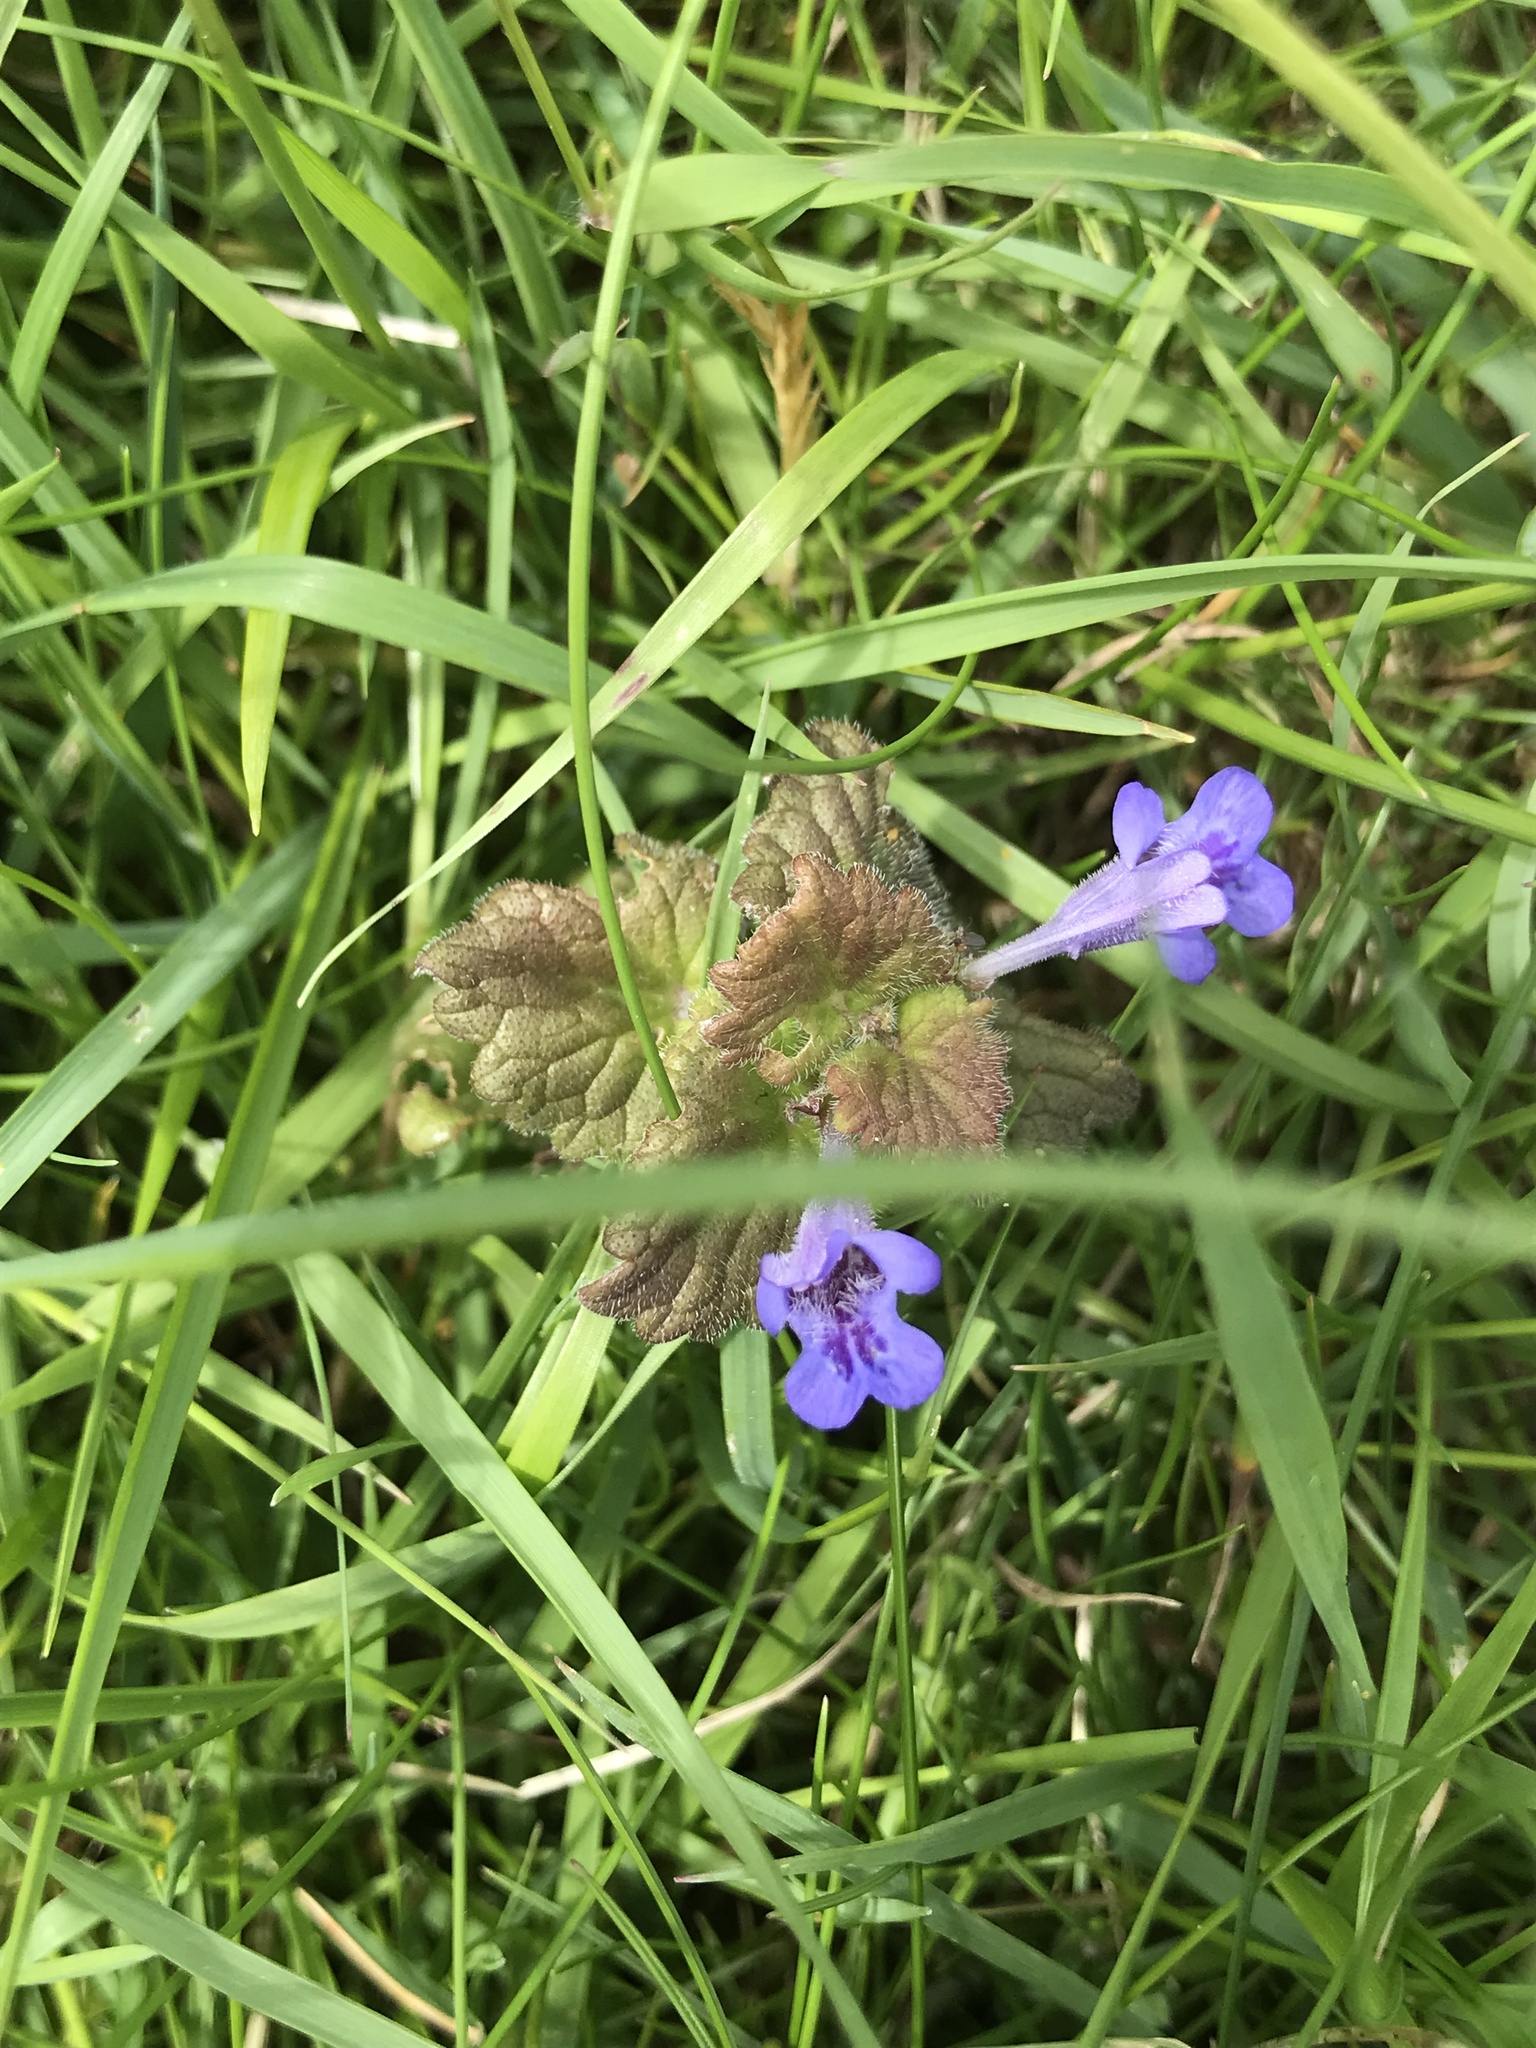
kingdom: Plantae
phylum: Tracheophyta
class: Magnoliopsida
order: Lamiales
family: Lamiaceae
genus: Glechoma
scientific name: Glechoma hederacea
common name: Ground ivy
